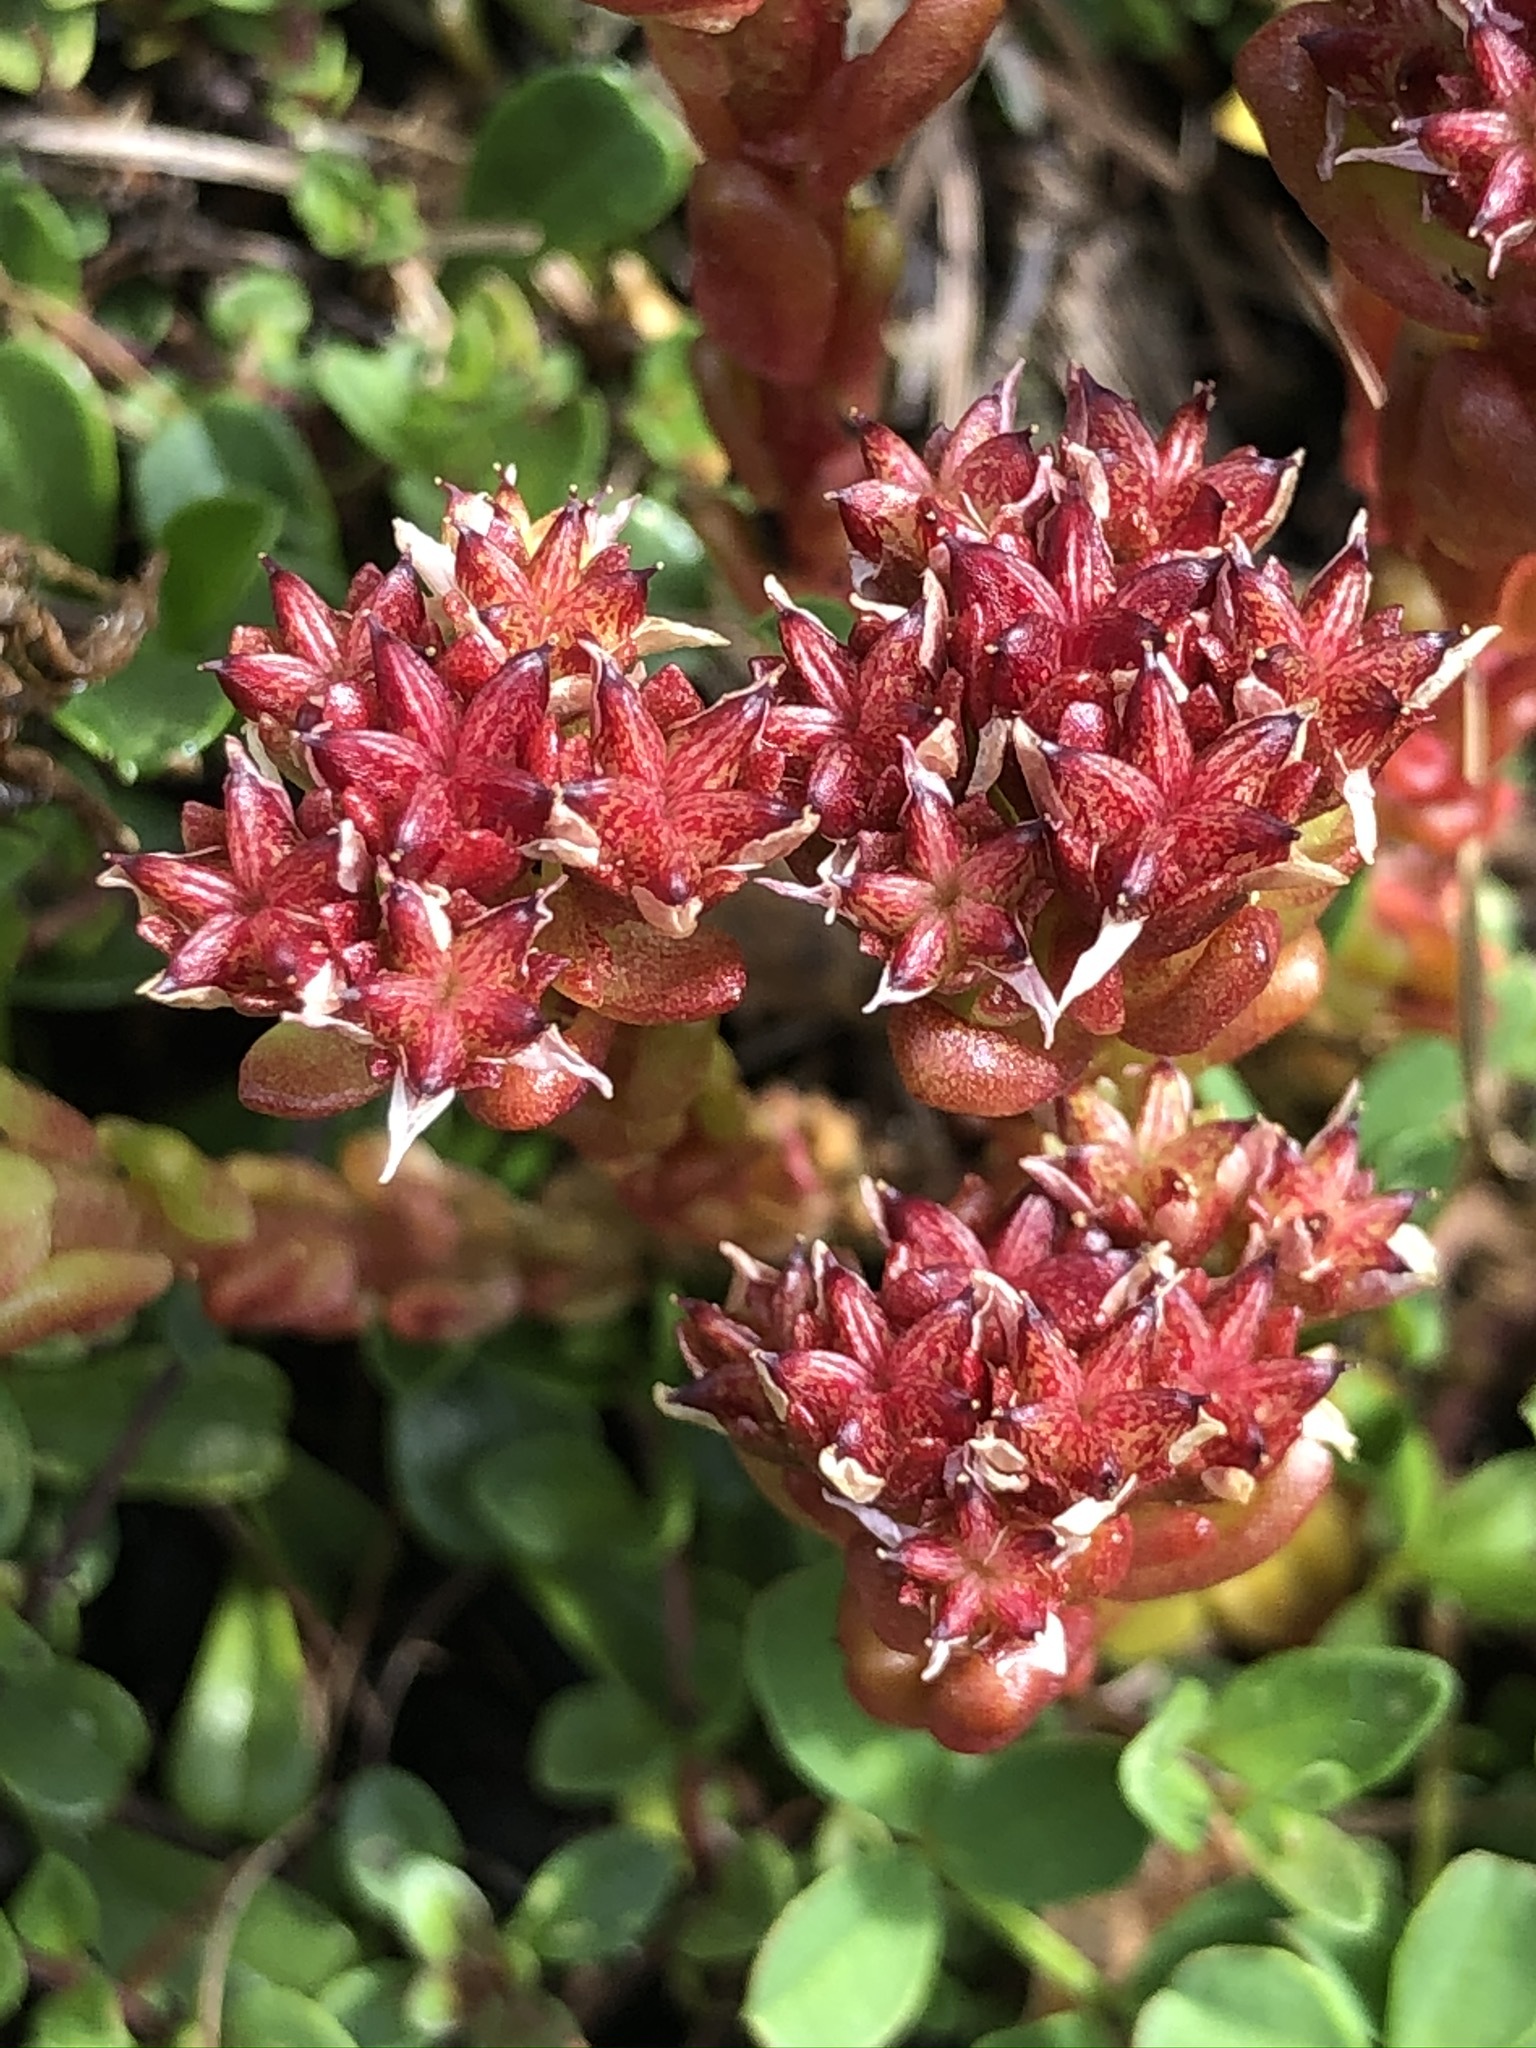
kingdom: Plantae
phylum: Tracheophyta
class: Magnoliopsida
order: Saxifragales
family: Crassulaceae
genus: Sedum
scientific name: Sedum atratum
